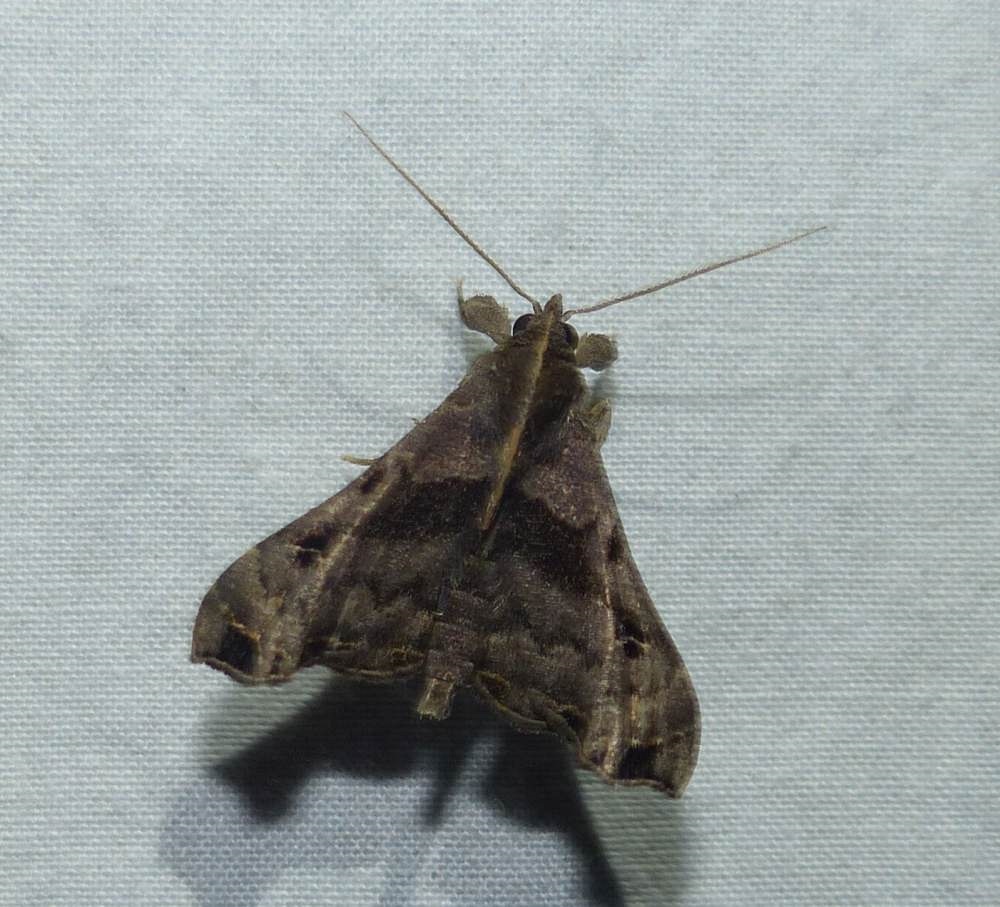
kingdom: Animalia
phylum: Arthropoda
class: Insecta
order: Lepidoptera
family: Erebidae
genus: Palthis
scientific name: Palthis asopialis
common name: Faint-spotted palthis moth
